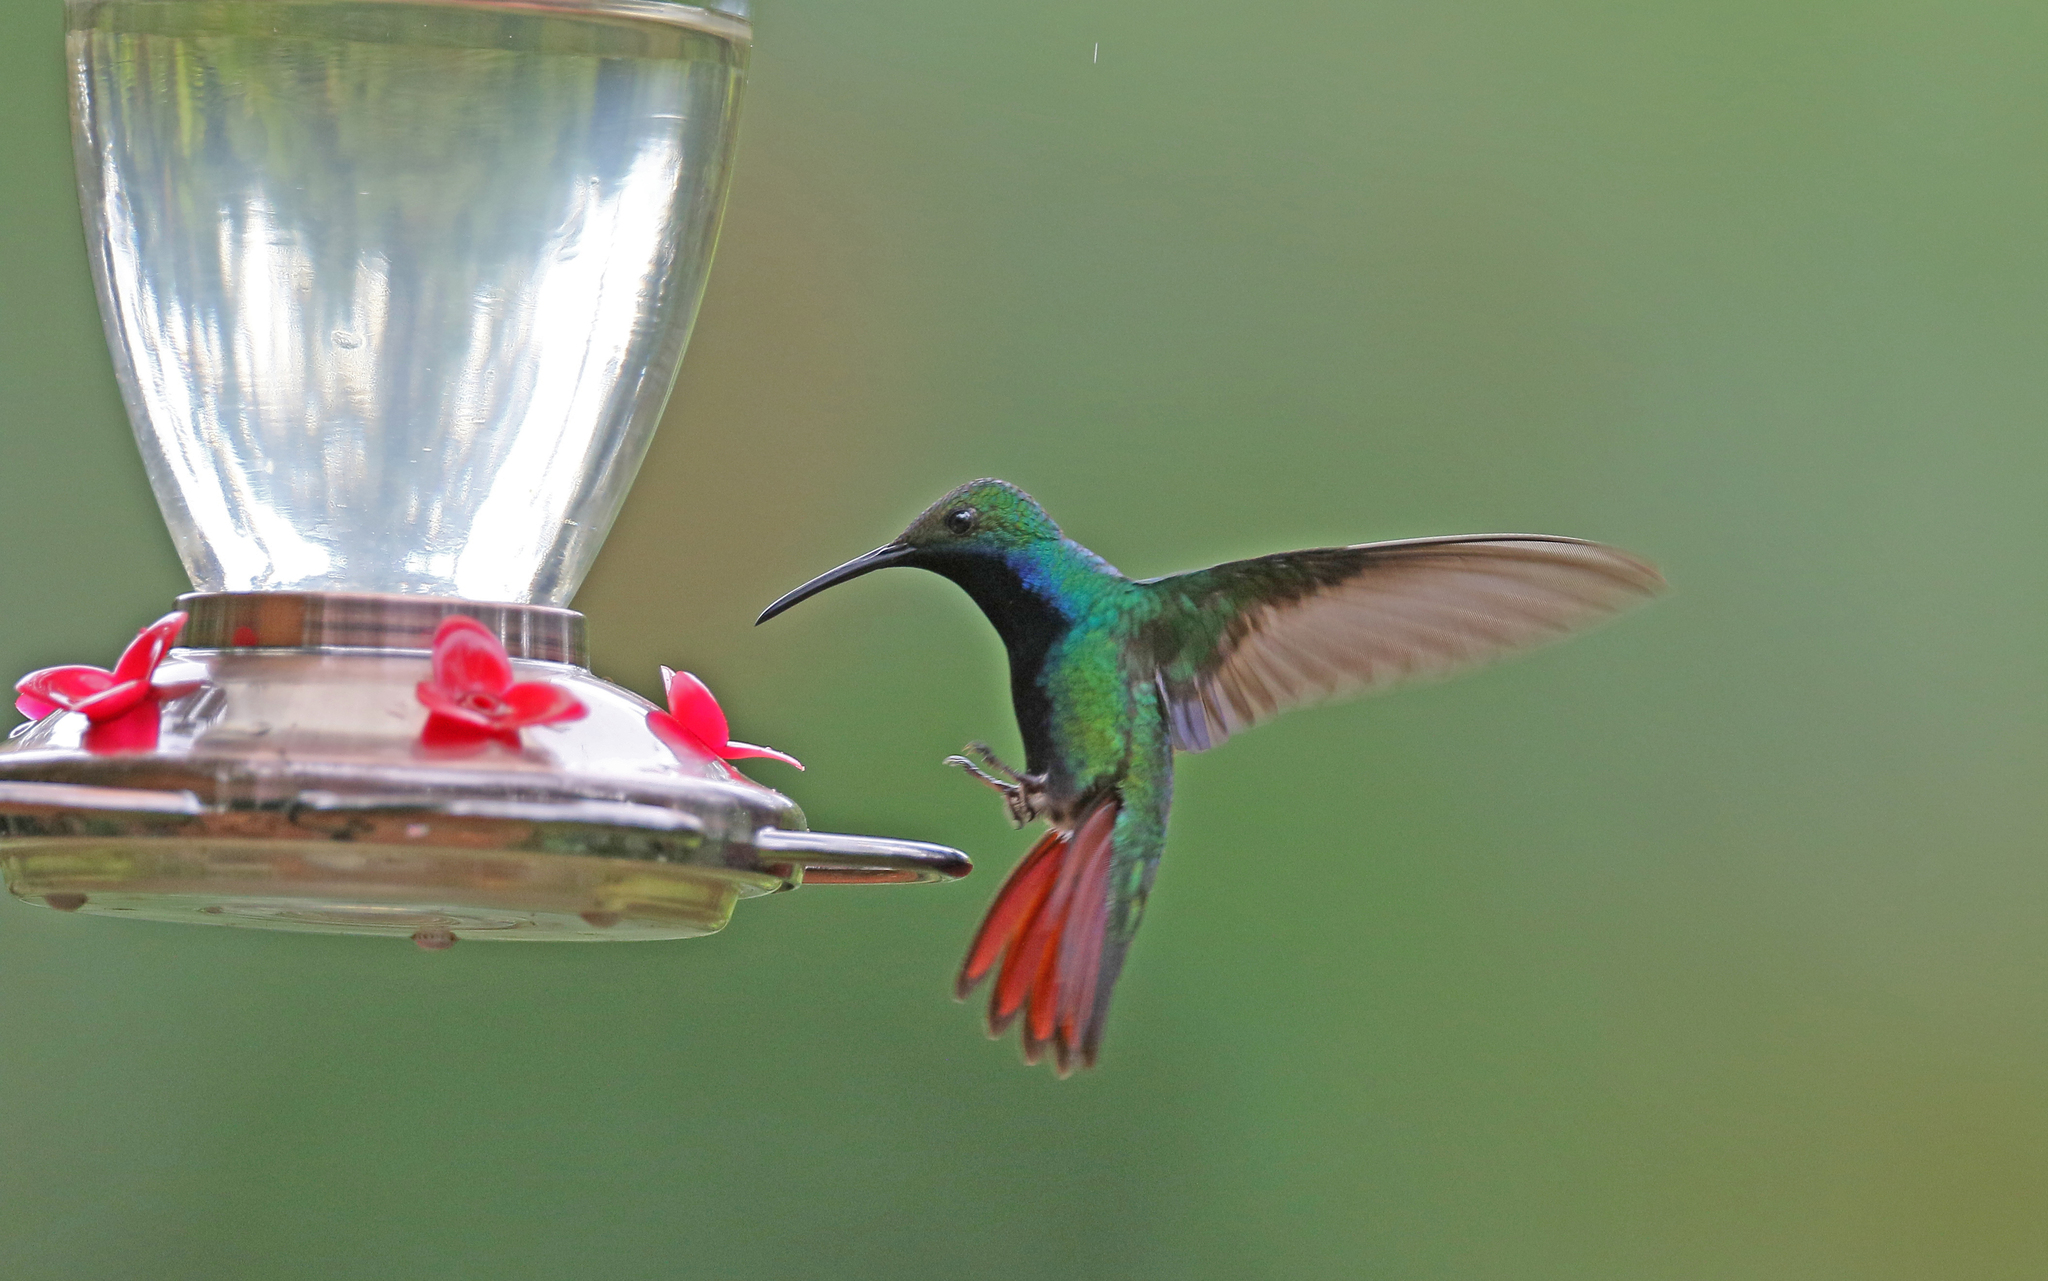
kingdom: Animalia
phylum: Chordata
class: Aves
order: Apodiformes
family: Trochilidae
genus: Anthracothorax
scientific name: Anthracothorax nigricollis
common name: Black-throated mango
